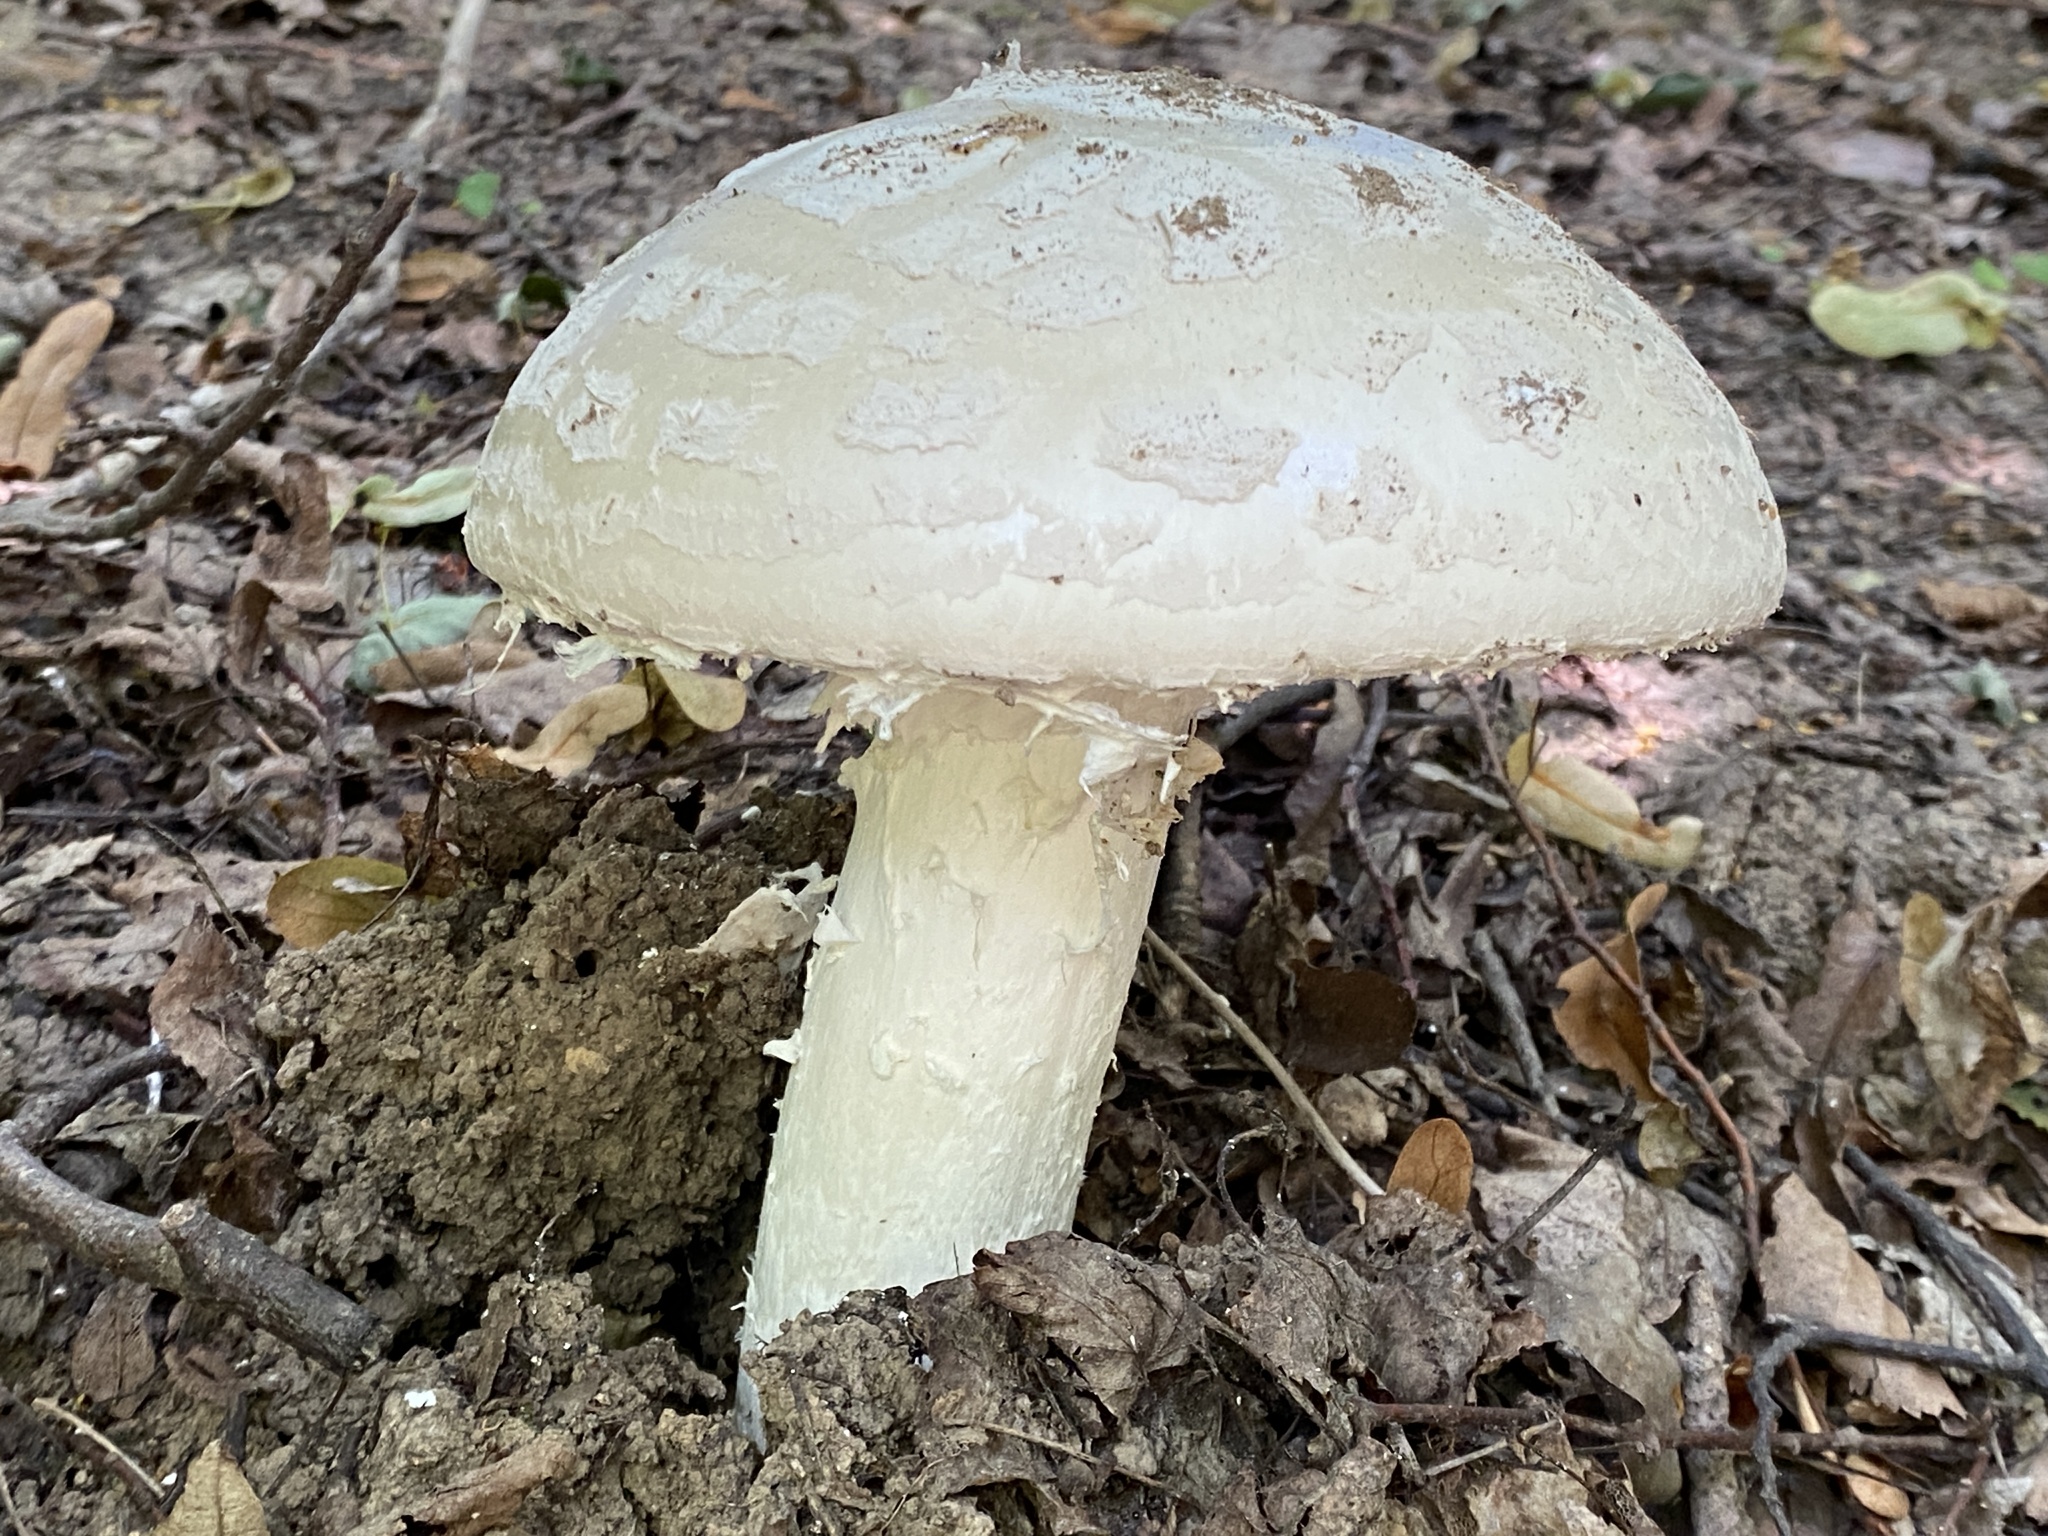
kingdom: Fungi
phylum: Basidiomycota
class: Agaricomycetes
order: Agaricales
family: Amanitaceae
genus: Amanita
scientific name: Amanita strobiliformis
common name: Warted amanita
